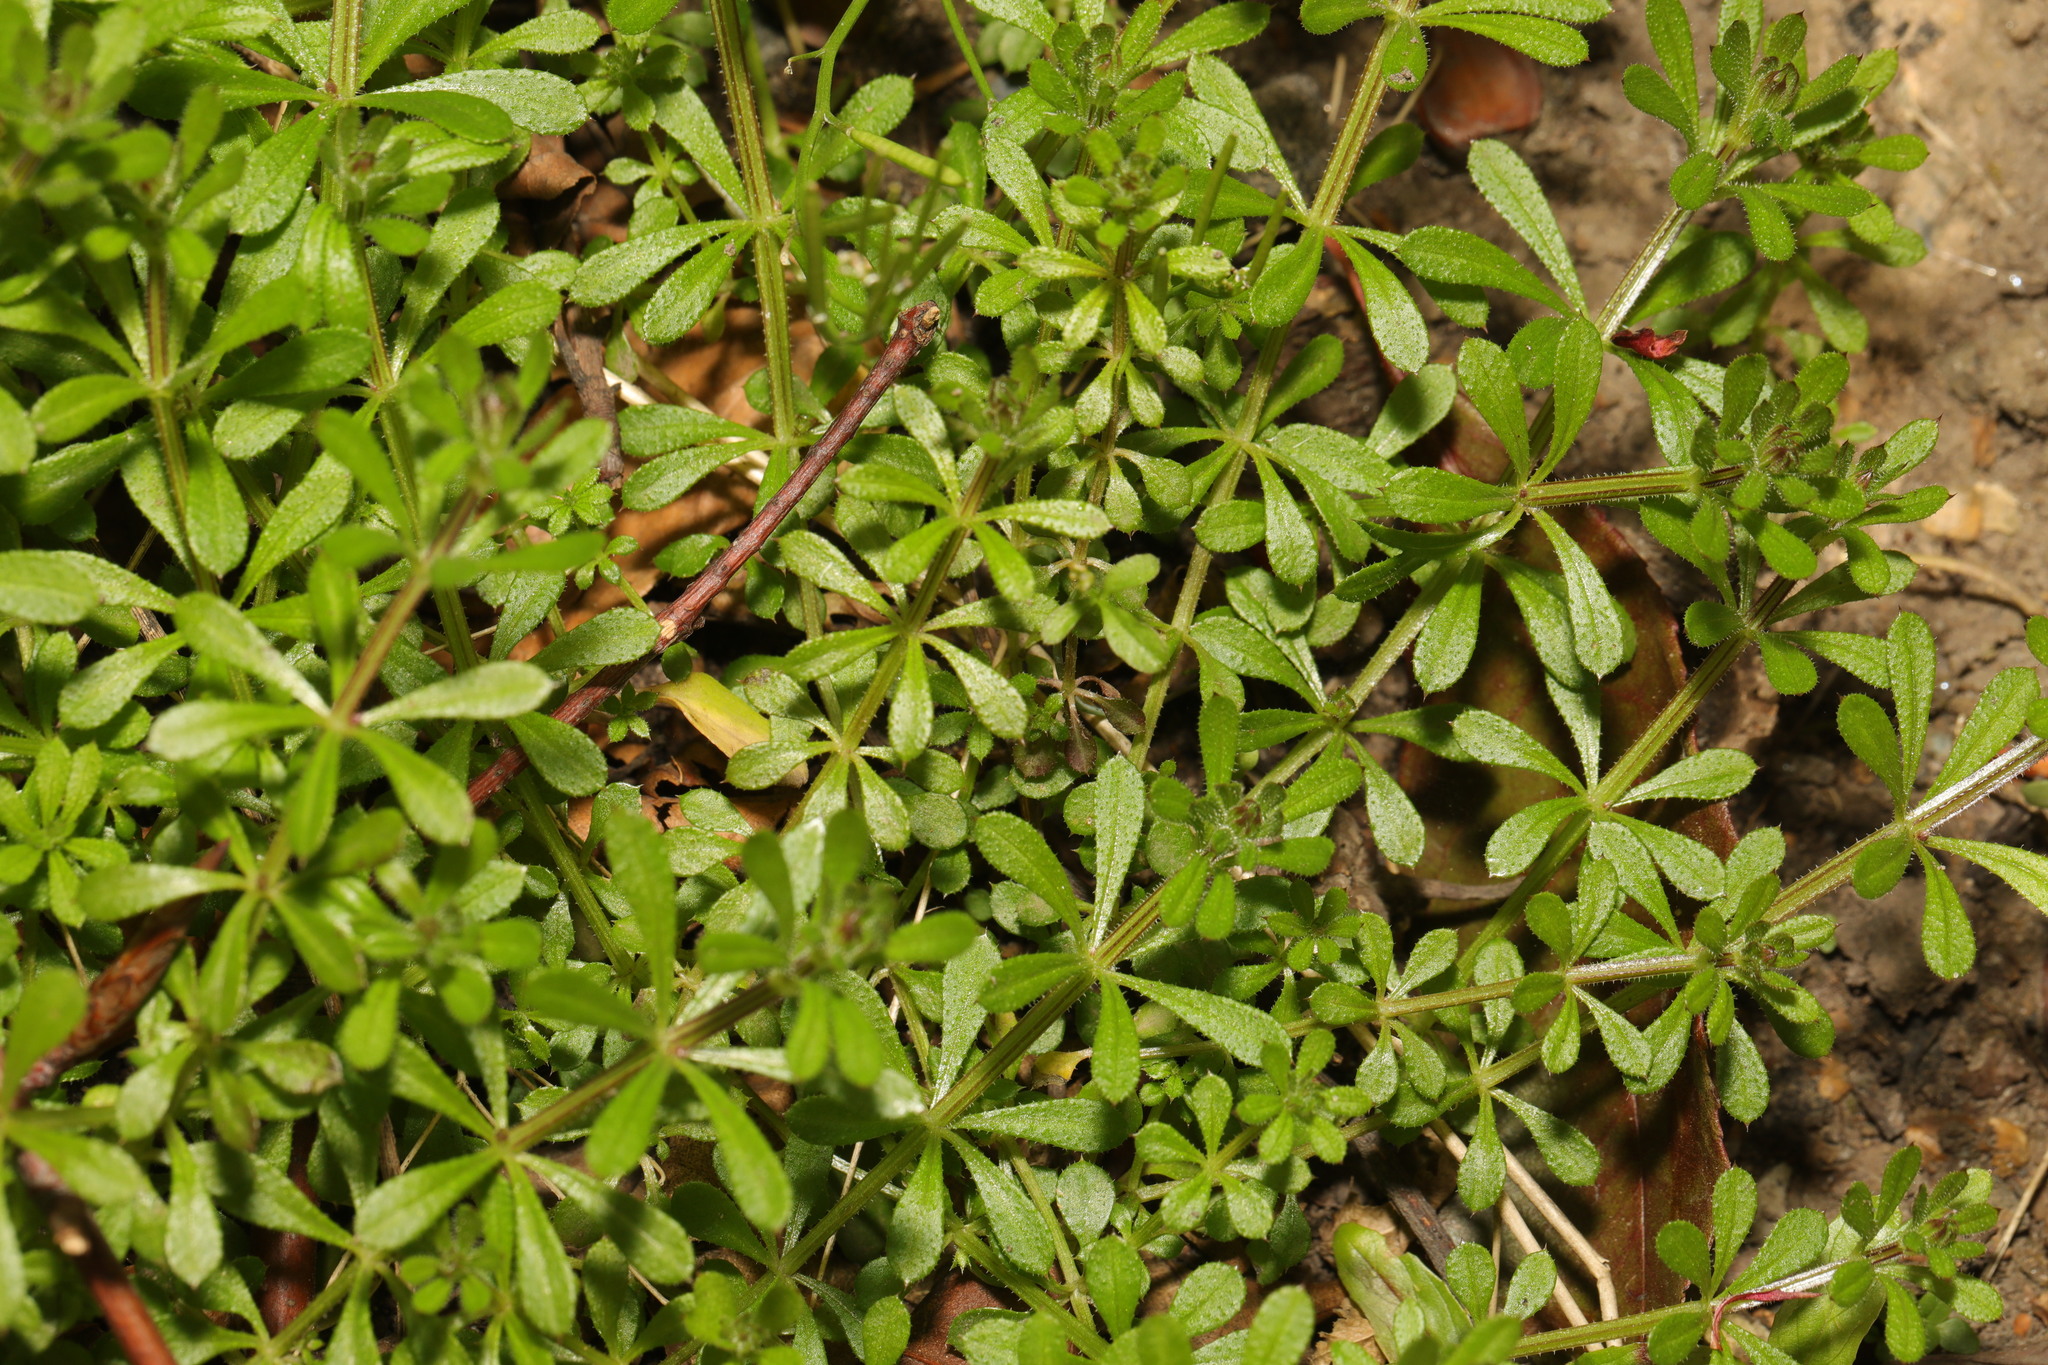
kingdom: Plantae
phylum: Tracheophyta
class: Magnoliopsida
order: Gentianales
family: Rubiaceae
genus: Galium
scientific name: Galium aparine
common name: Cleavers
